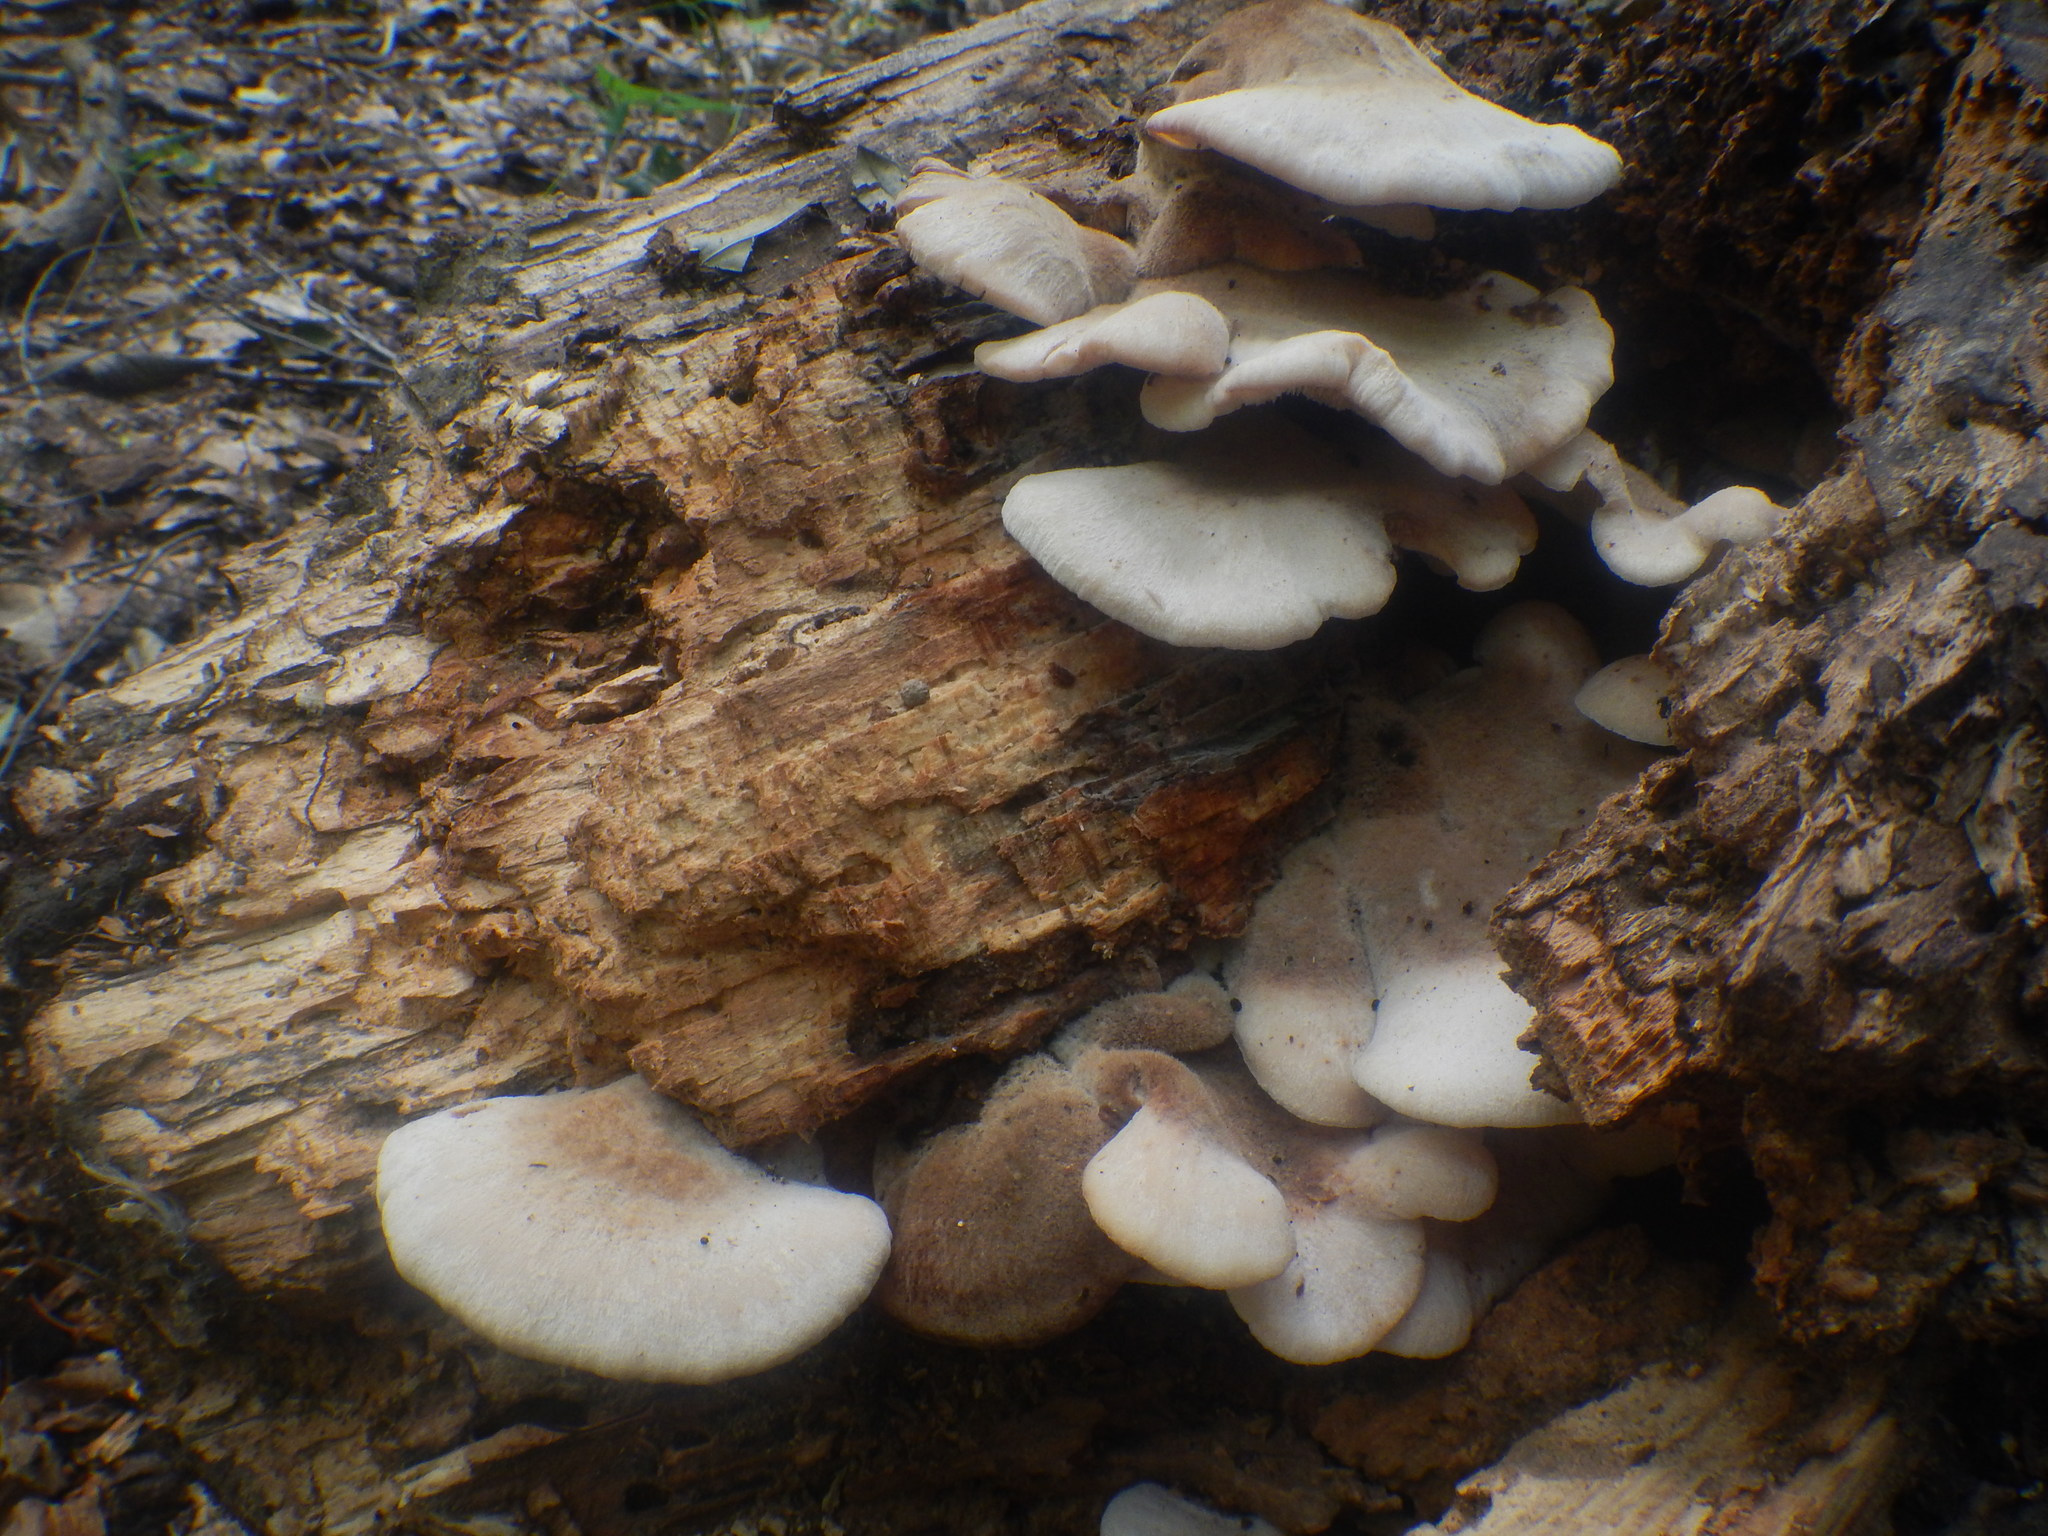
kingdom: Fungi
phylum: Basidiomycota
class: Agaricomycetes
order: Russulales
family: Auriscalpiaceae
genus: Lentinellus
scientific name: Lentinellus ursinus
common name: Bear lentinus
